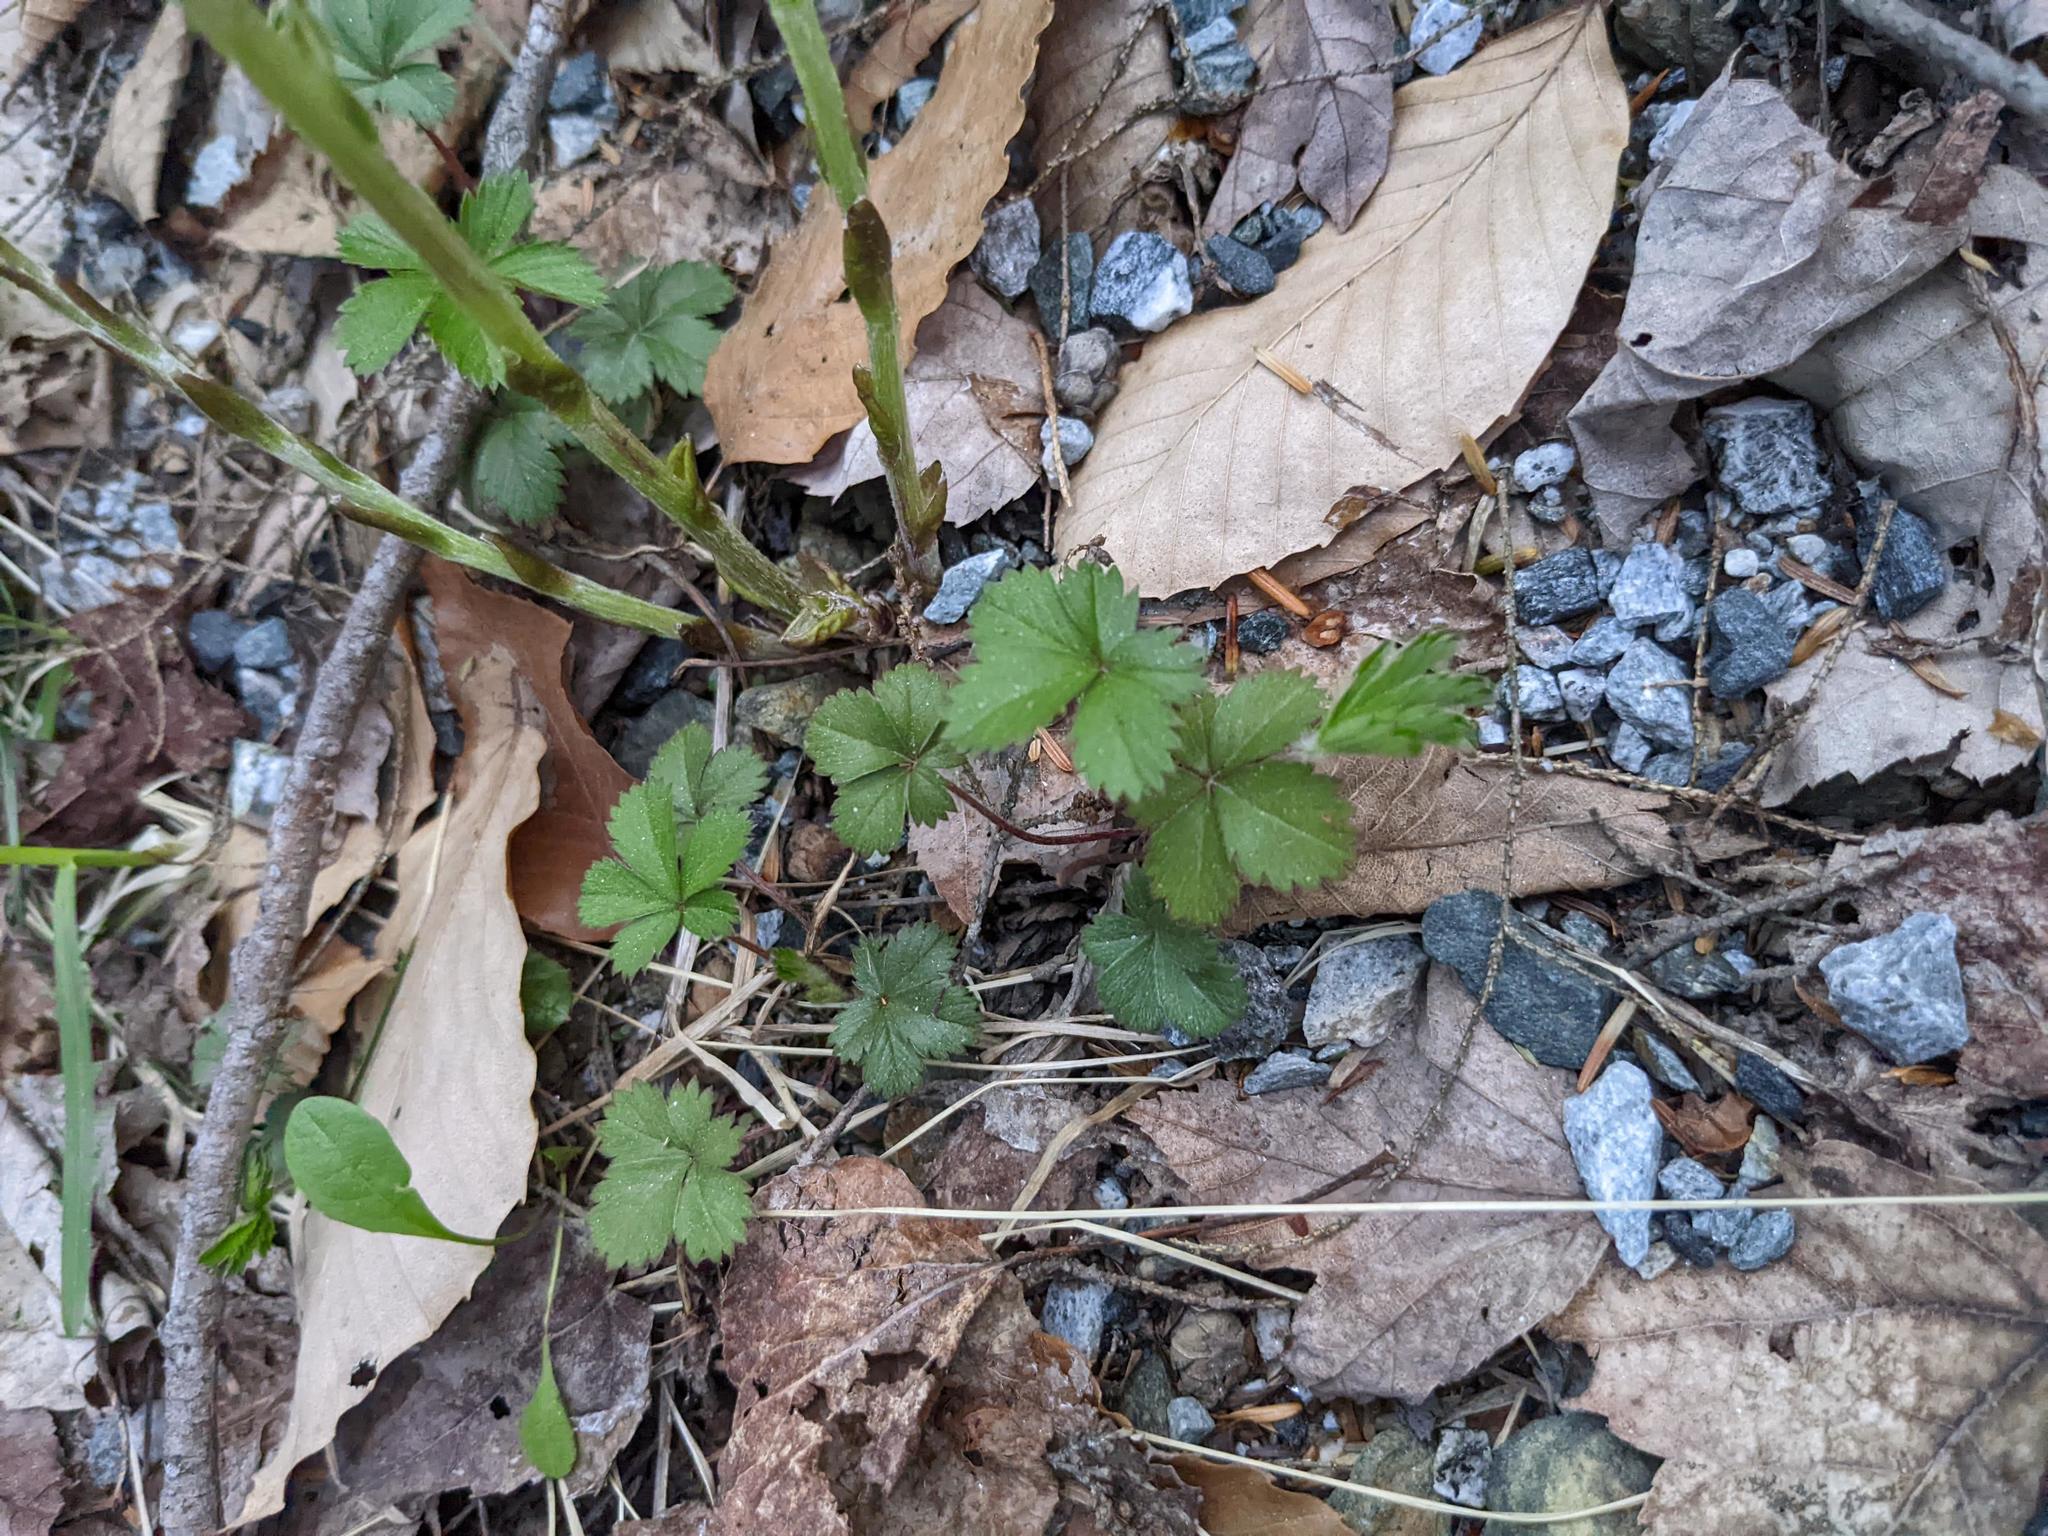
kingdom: Plantae
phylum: Tracheophyta
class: Magnoliopsida
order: Fagales
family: Fagaceae
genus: Fagus
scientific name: Fagus grandifolia
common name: American beech
